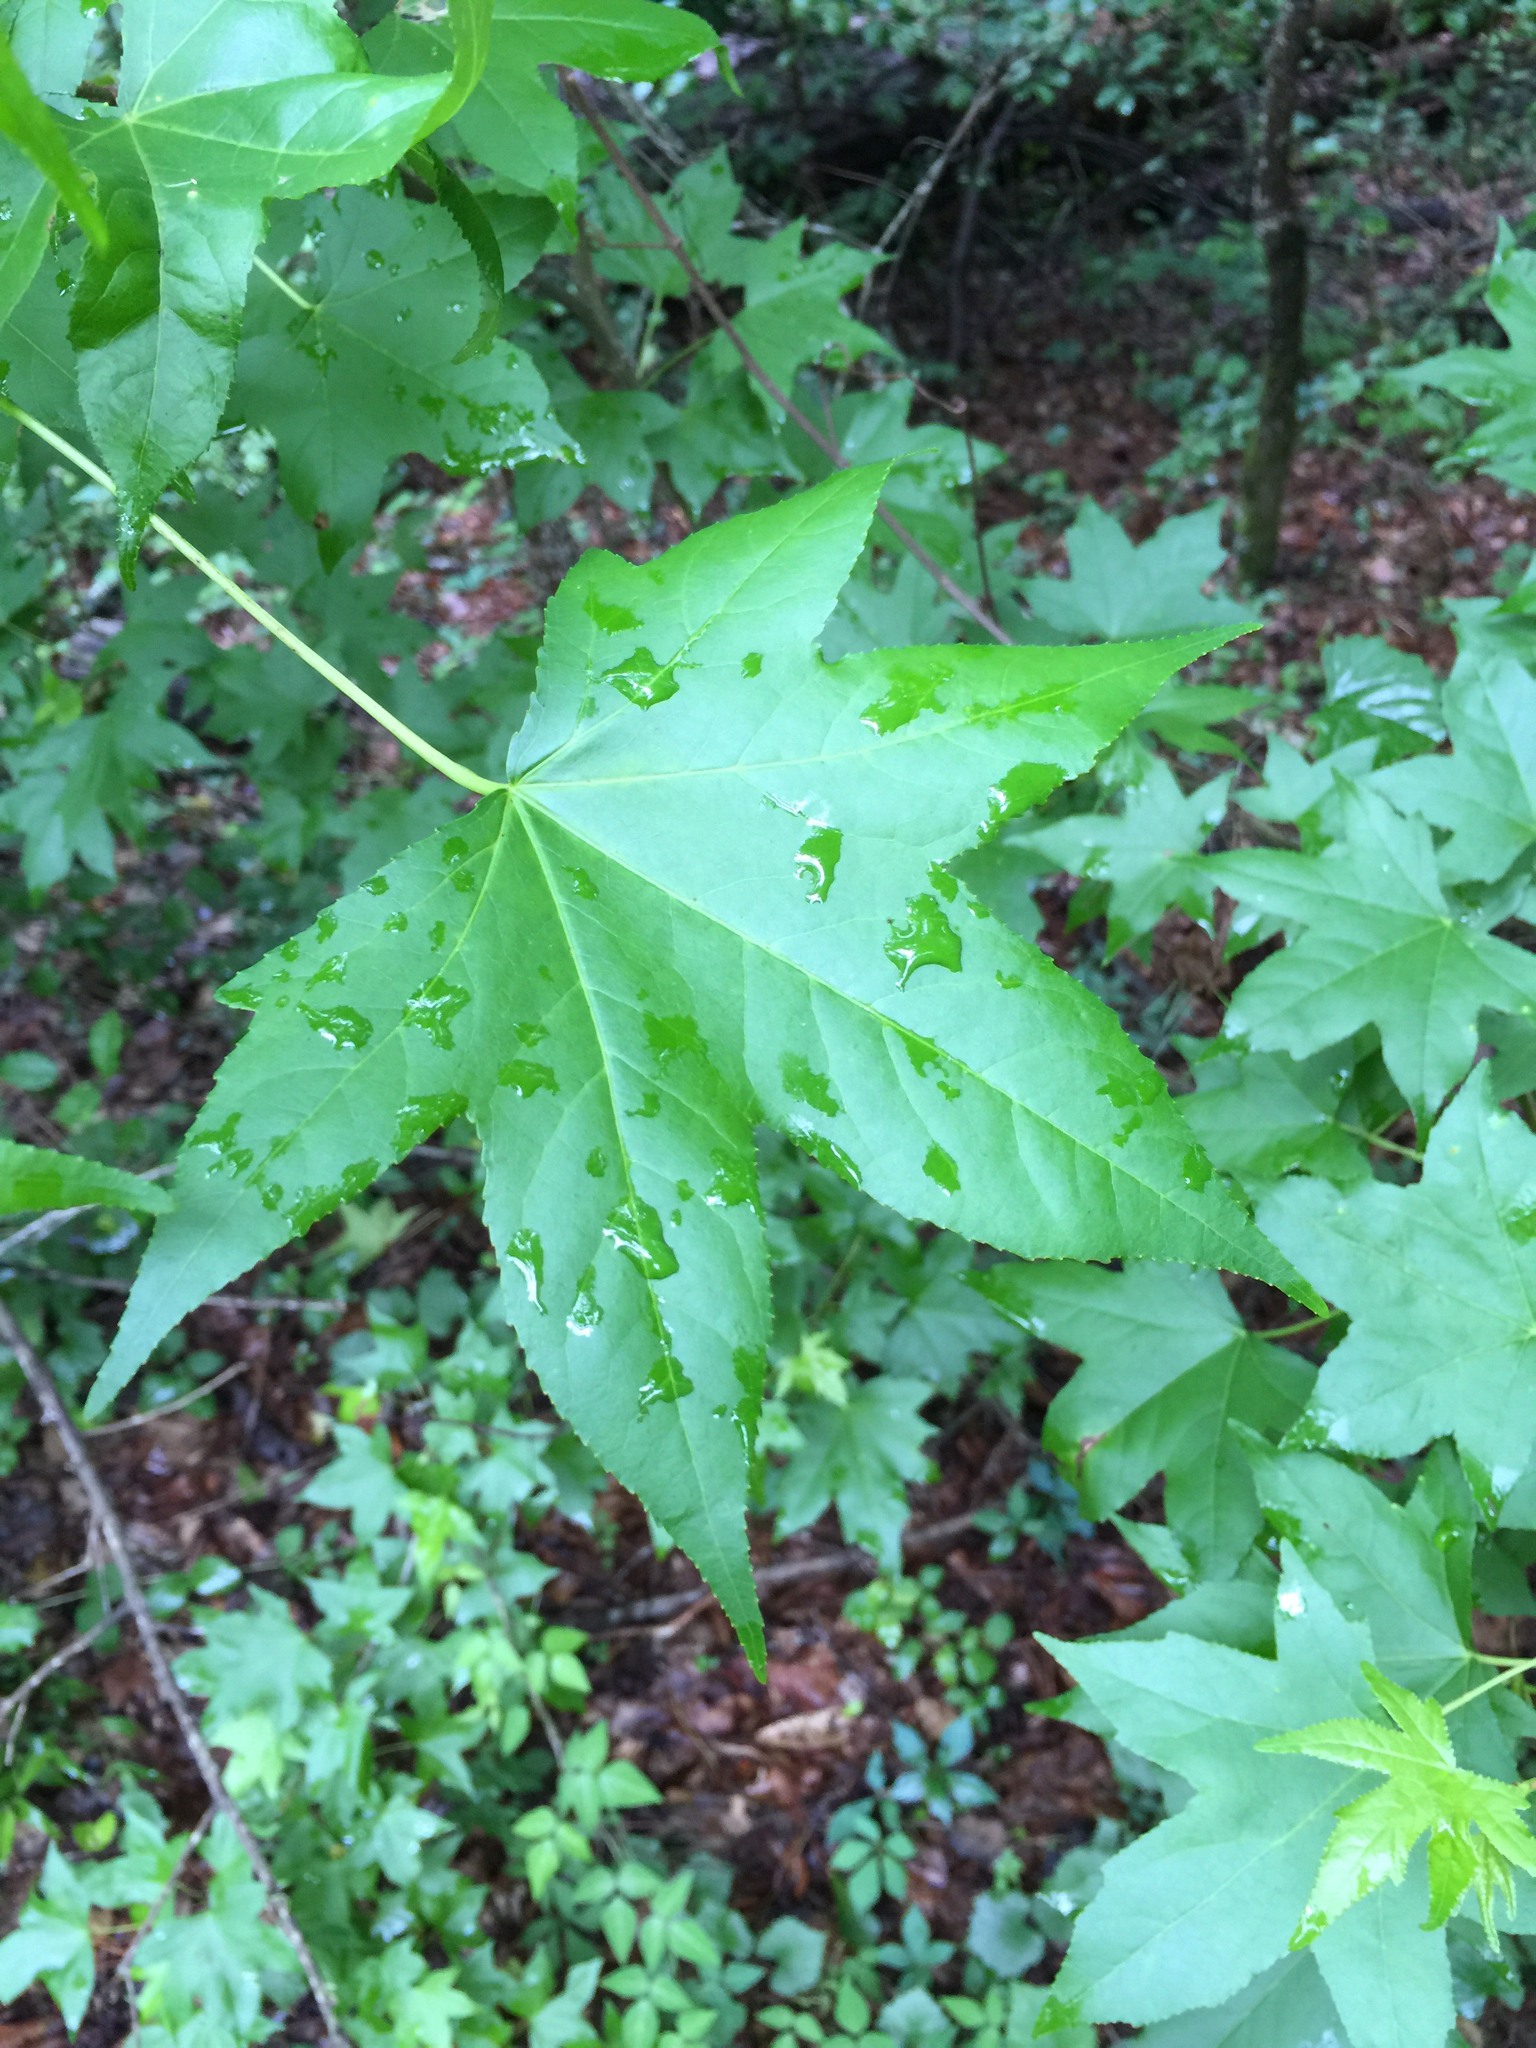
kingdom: Plantae
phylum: Tracheophyta
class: Magnoliopsida
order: Saxifragales
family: Altingiaceae
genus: Liquidambar
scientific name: Liquidambar styraciflua
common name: Sweet gum
